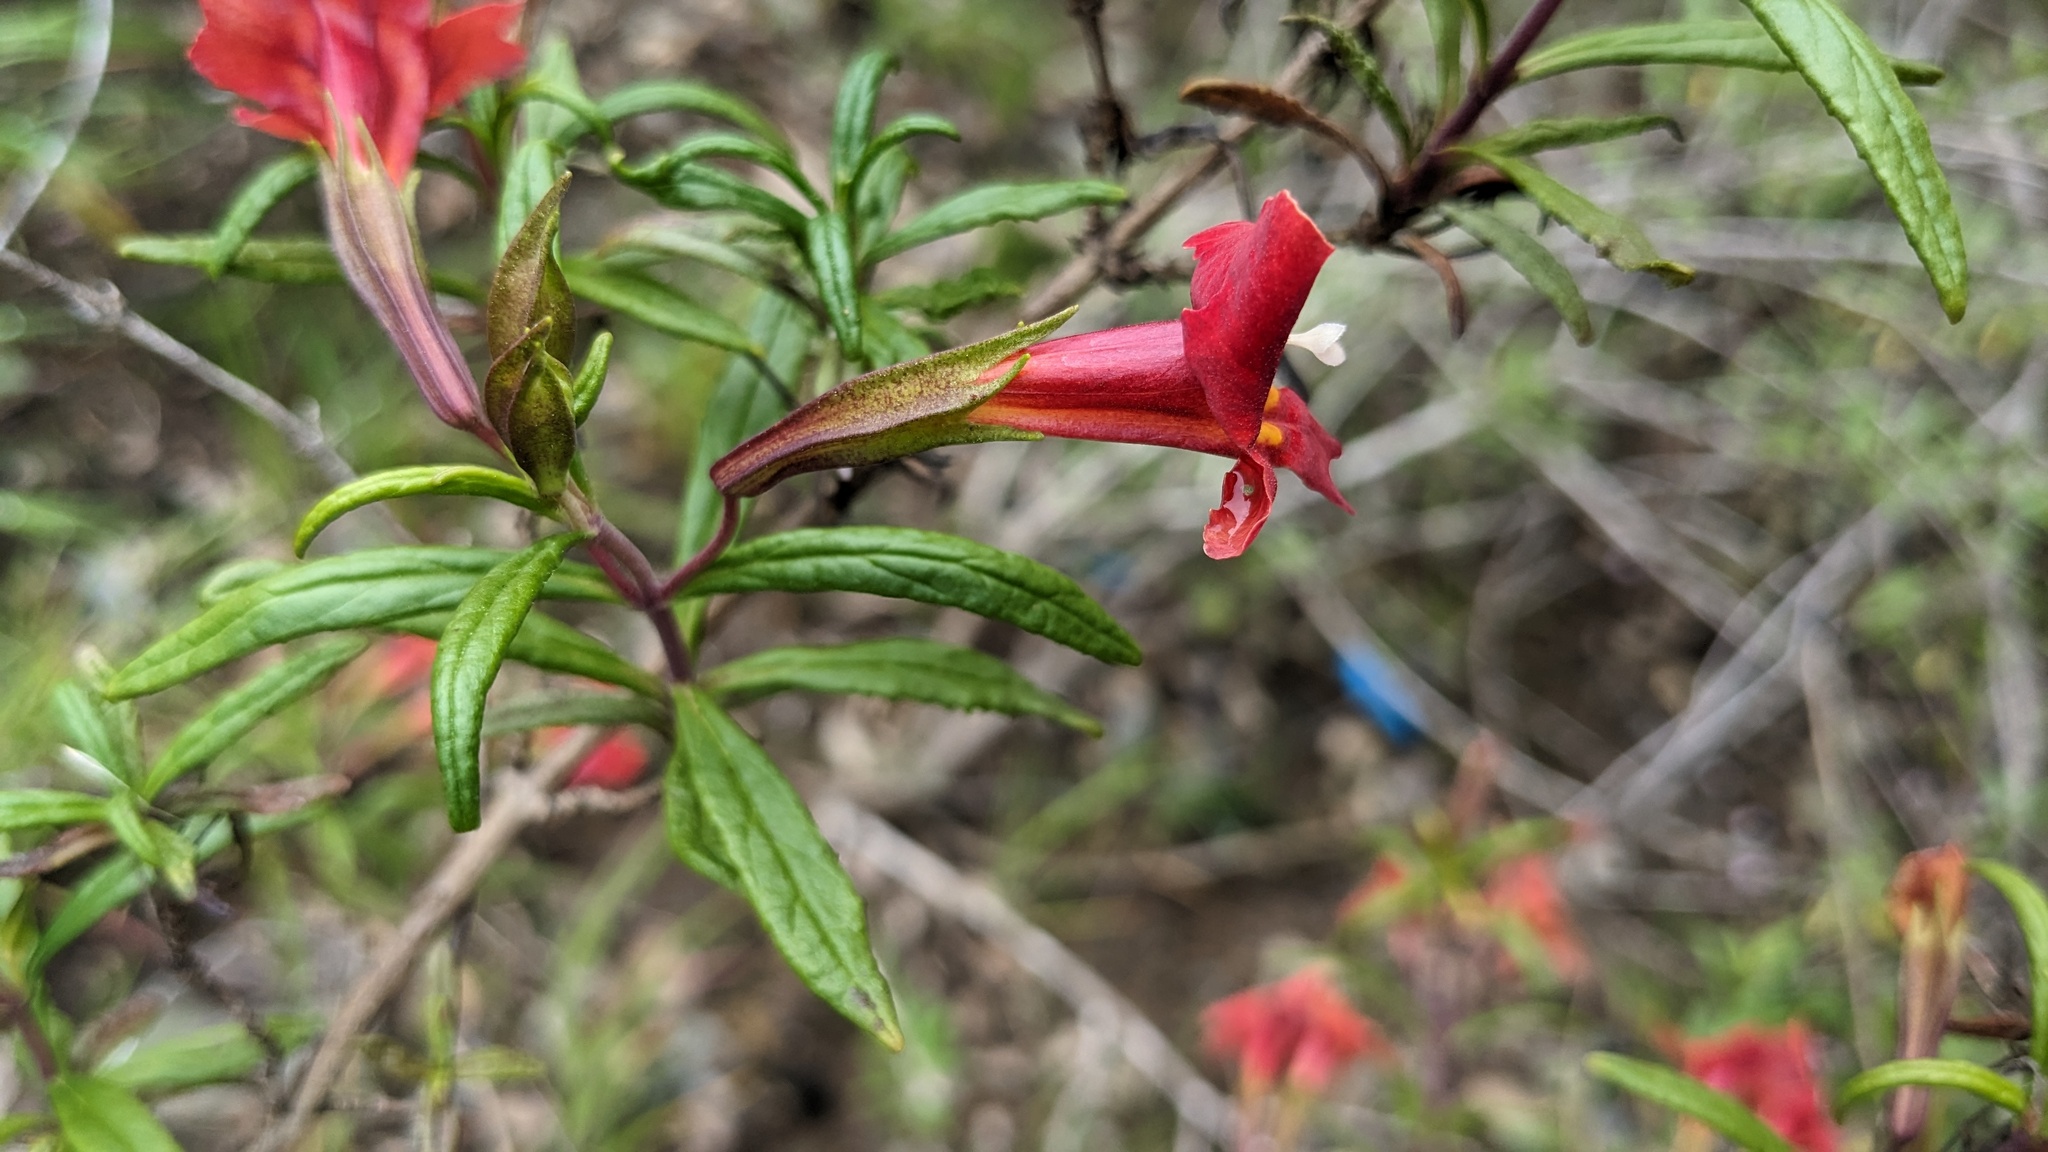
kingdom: Plantae
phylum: Tracheophyta
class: Magnoliopsida
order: Lamiales
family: Phrymaceae
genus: Diplacus
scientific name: Diplacus puniceus
